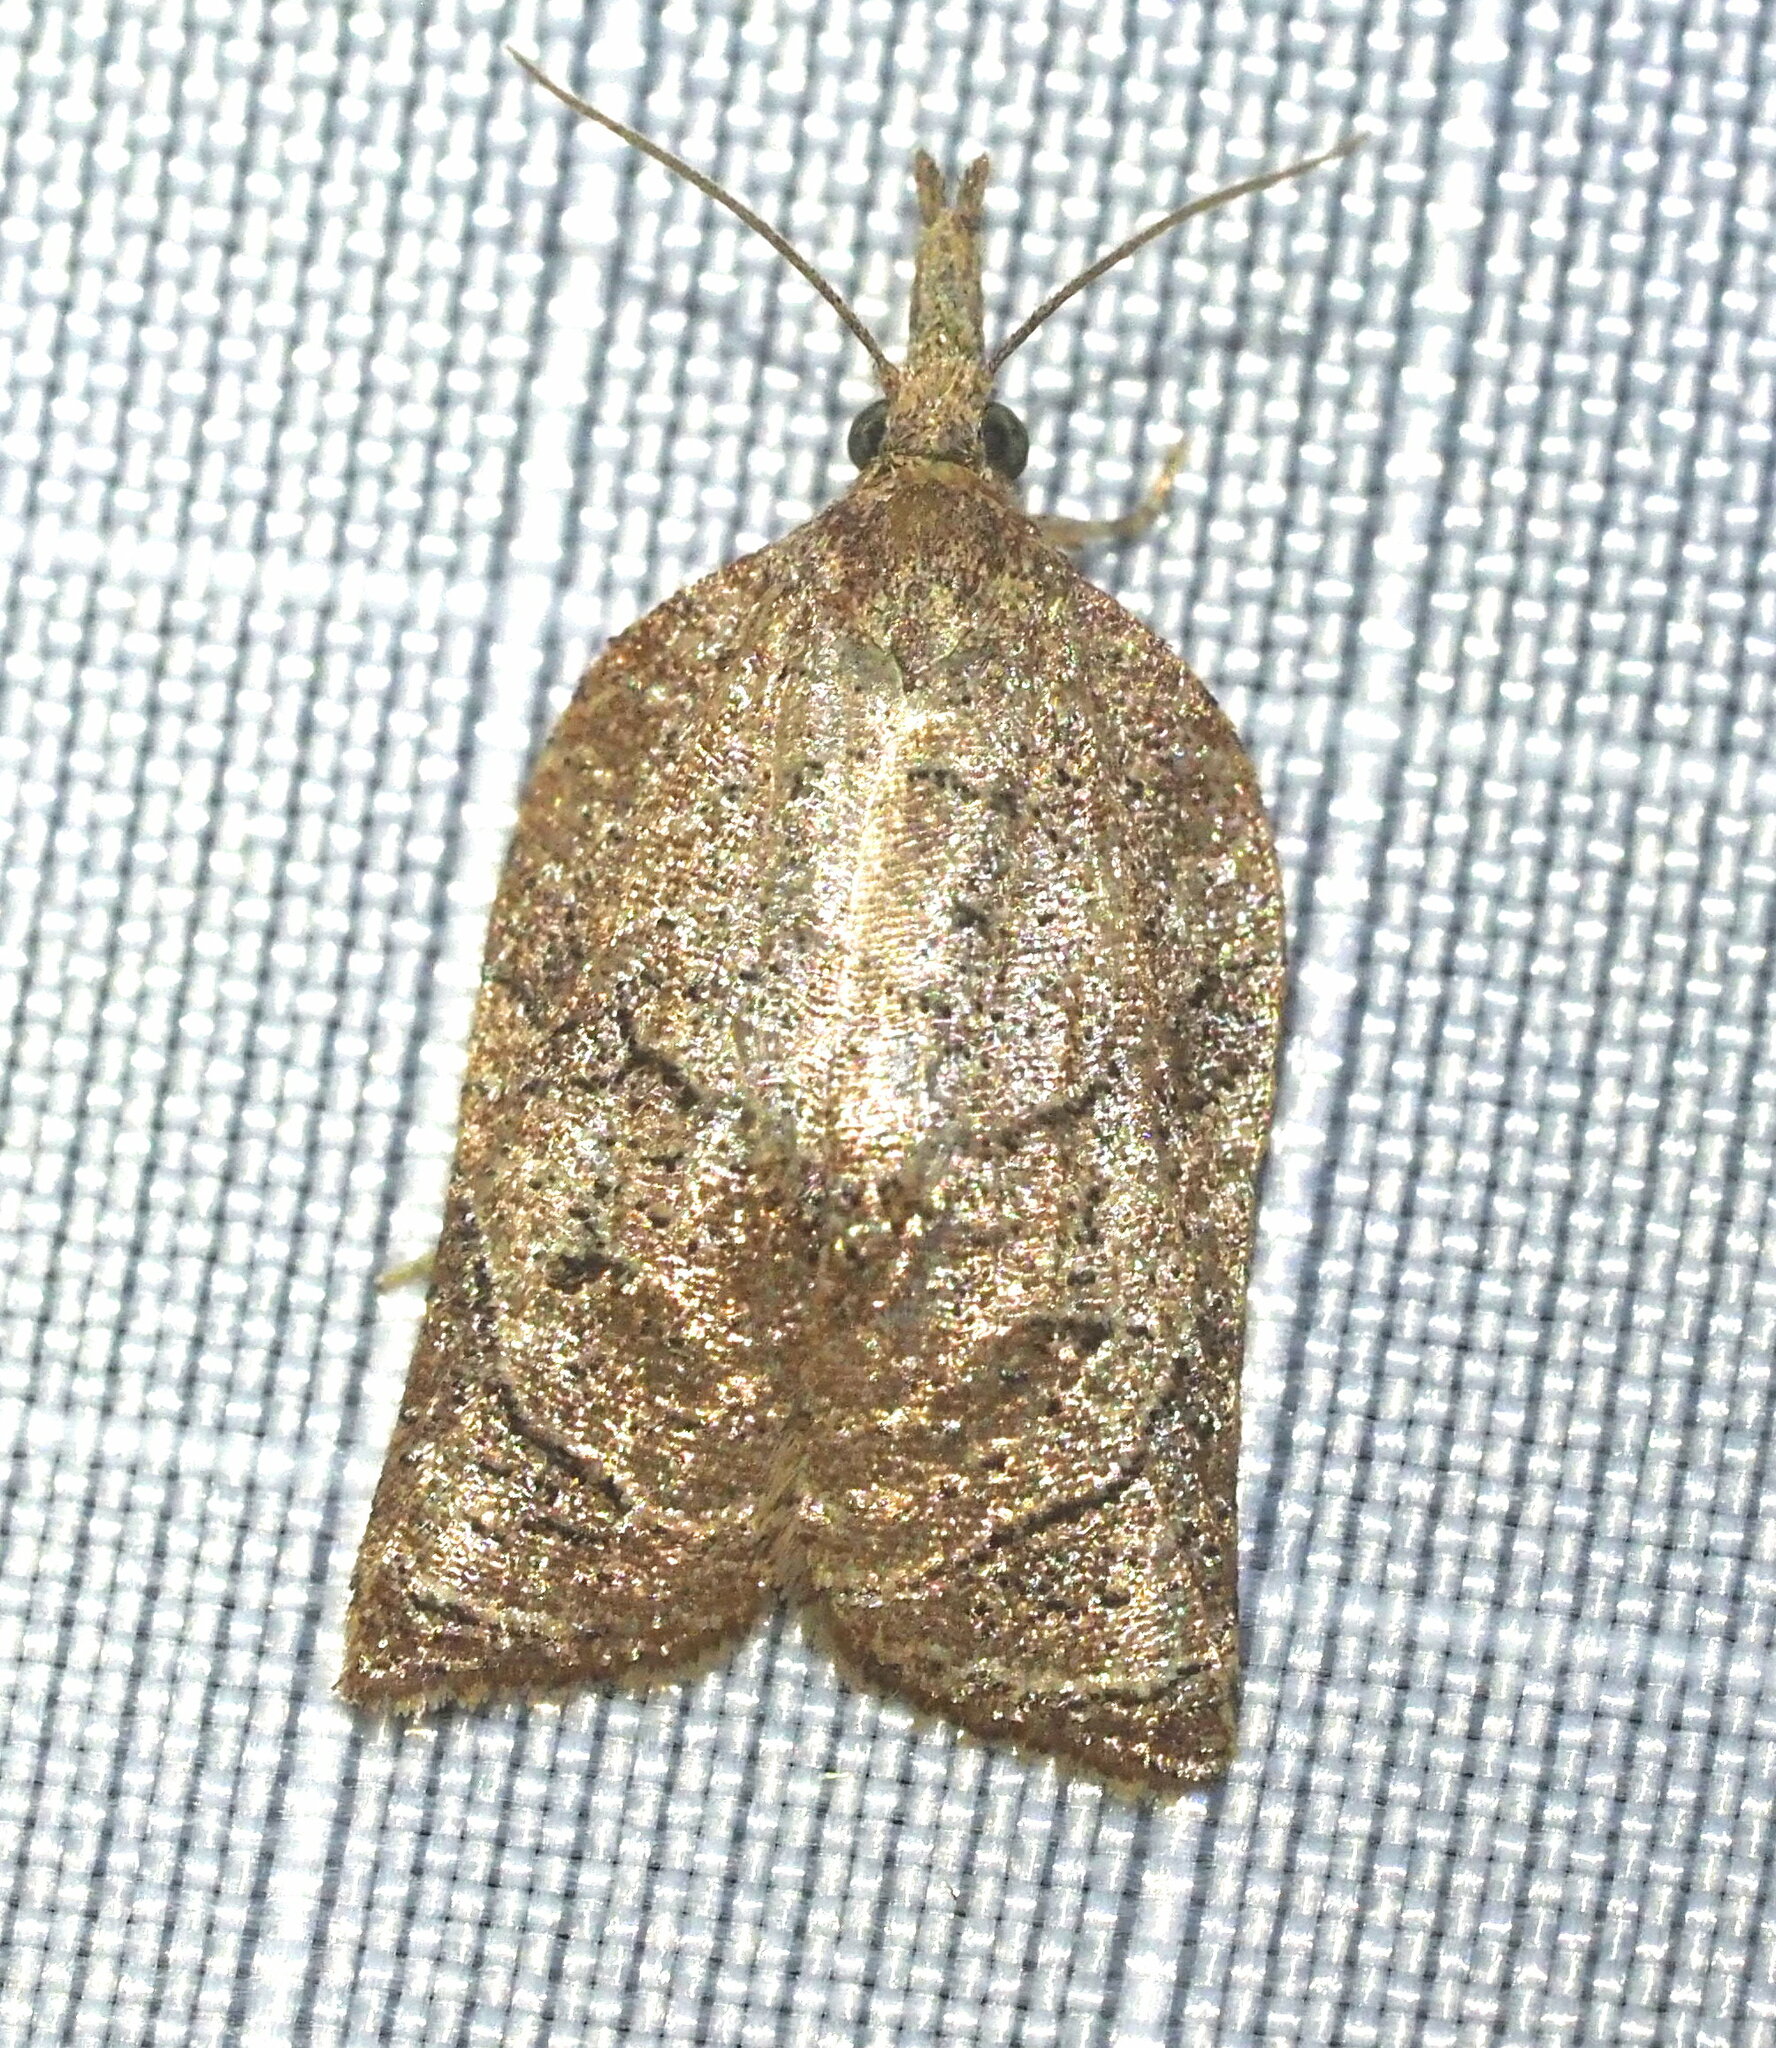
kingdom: Animalia
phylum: Arthropoda
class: Insecta
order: Lepidoptera
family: Tortricidae
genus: Platynota
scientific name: Platynota rostrana
